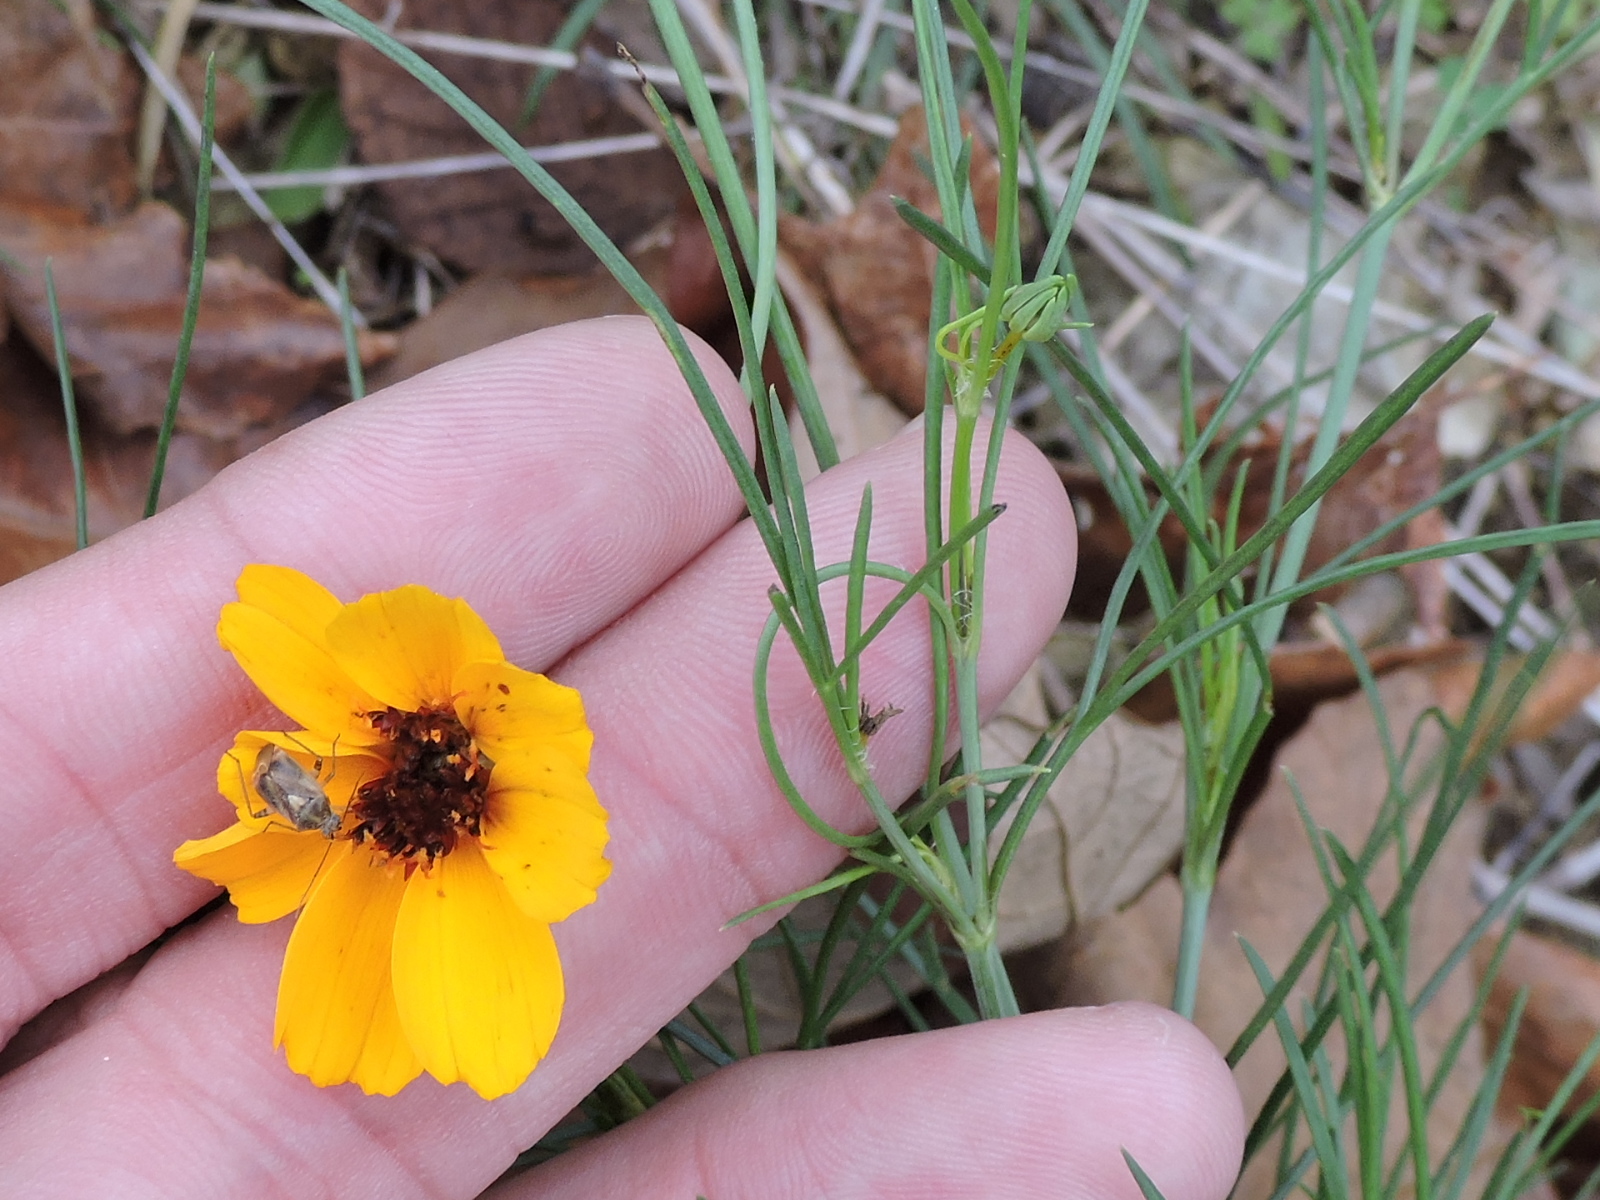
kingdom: Plantae
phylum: Tracheophyta
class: Magnoliopsida
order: Asterales
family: Asteraceae
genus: Thelesperma
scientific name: Thelesperma filifolium
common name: Stiff greenthread
